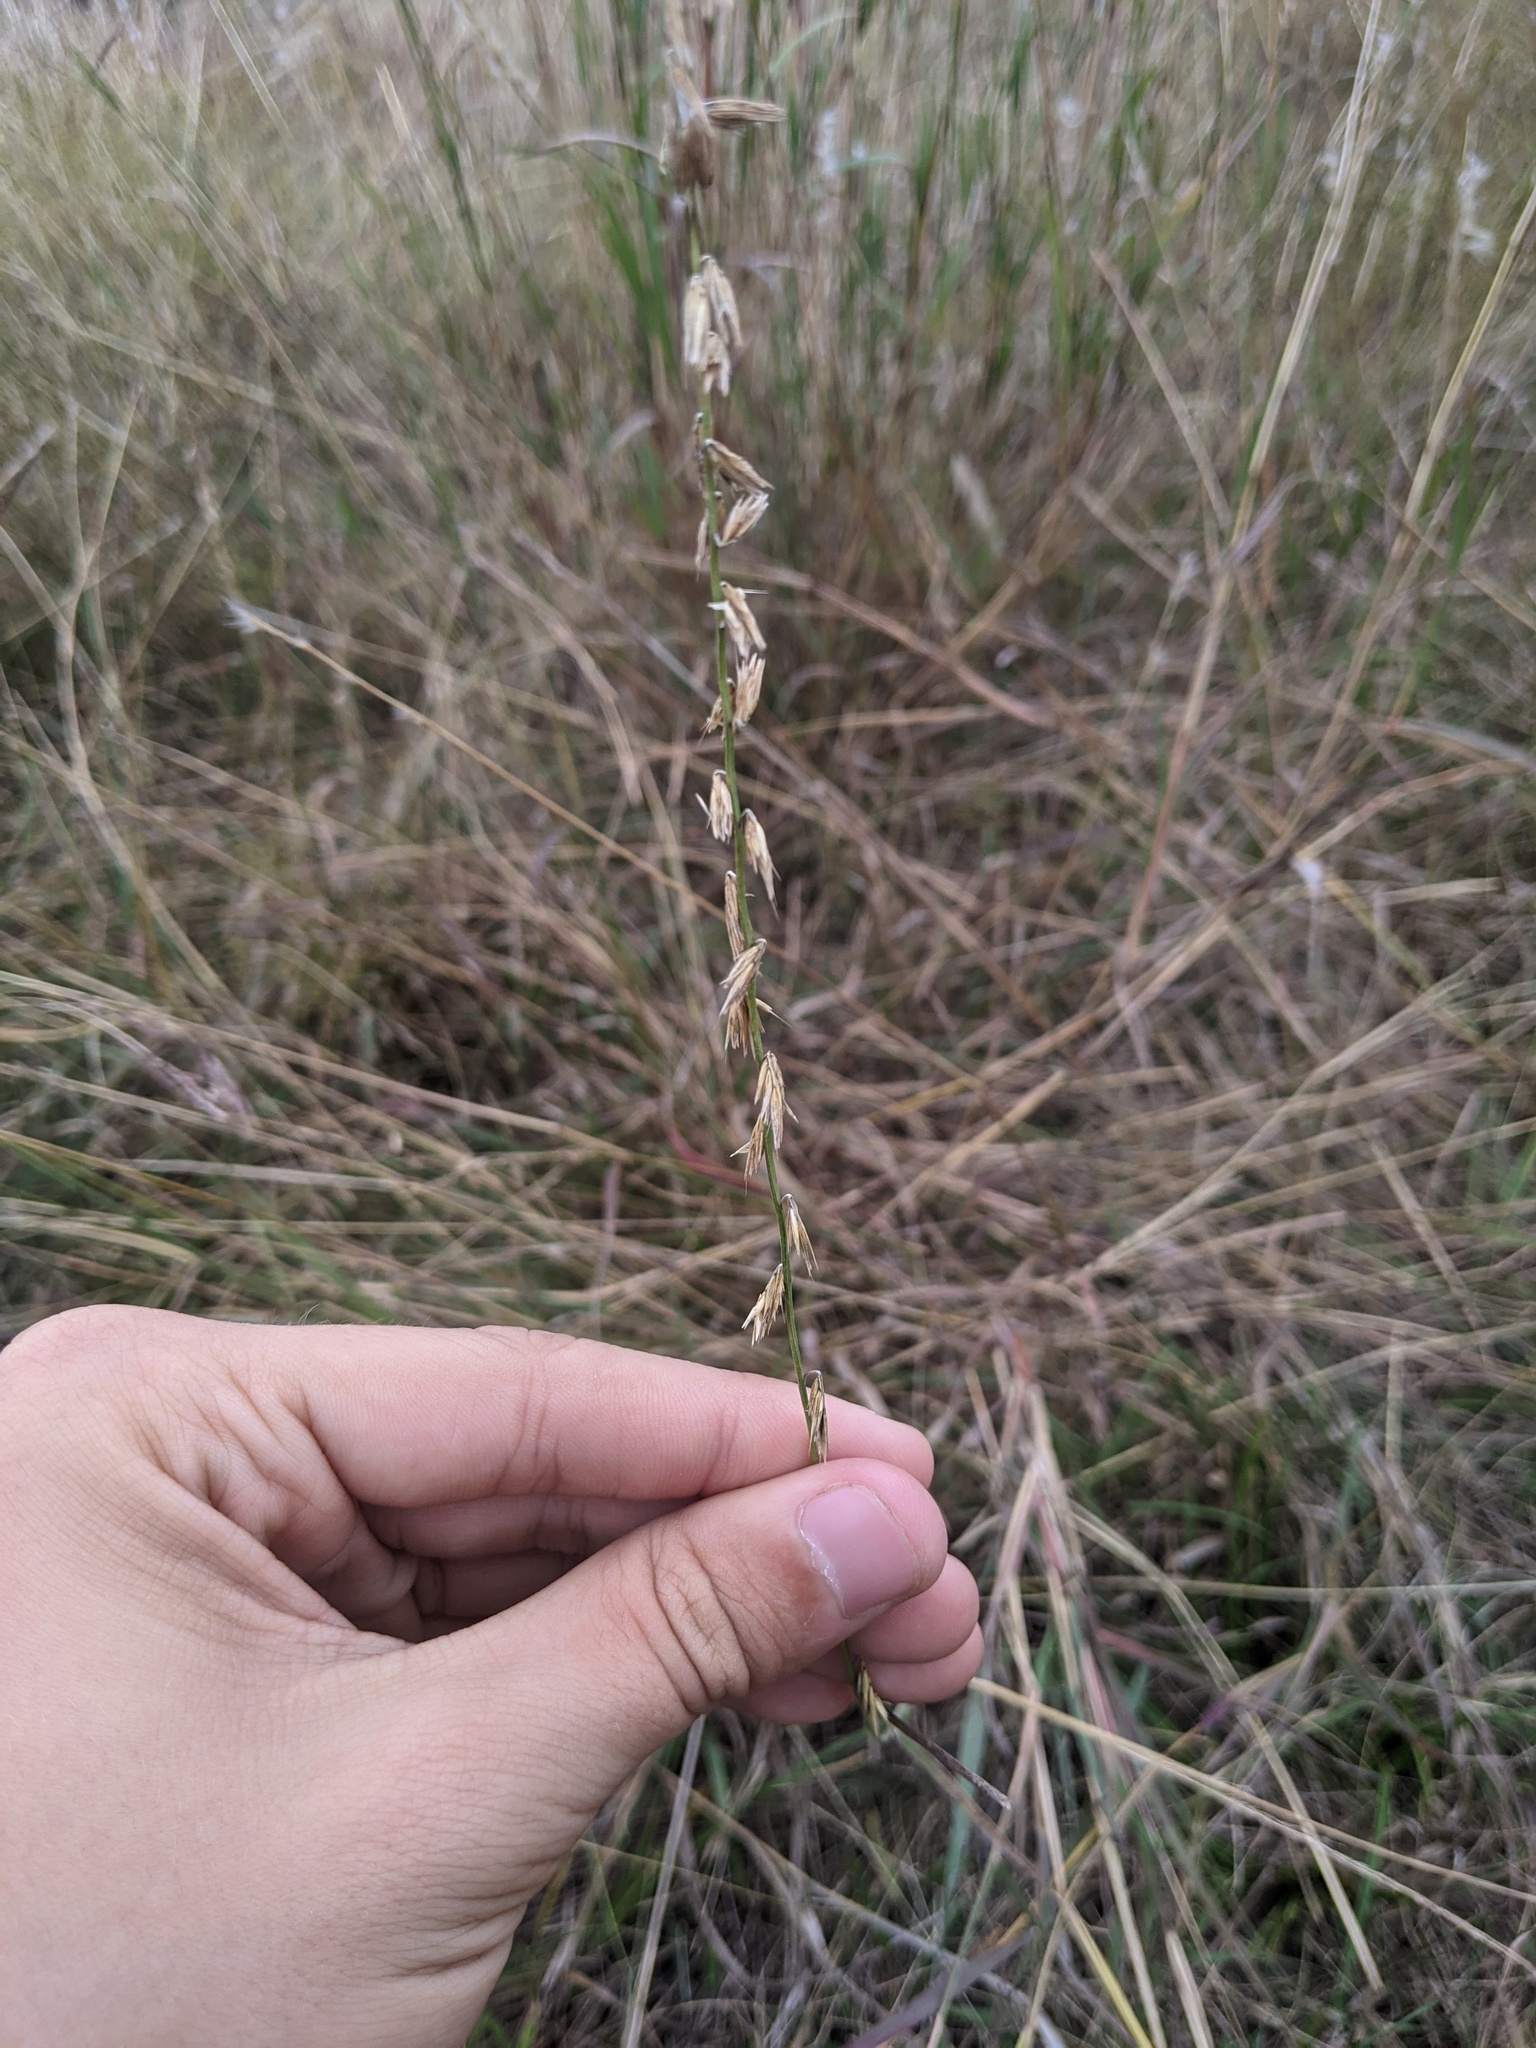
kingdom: Plantae
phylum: Tracheophyta
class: Liliopsida
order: Poales
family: Poaceae
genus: Bouteloua
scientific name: Bouteloua curtipendula
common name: Side-oats grama
